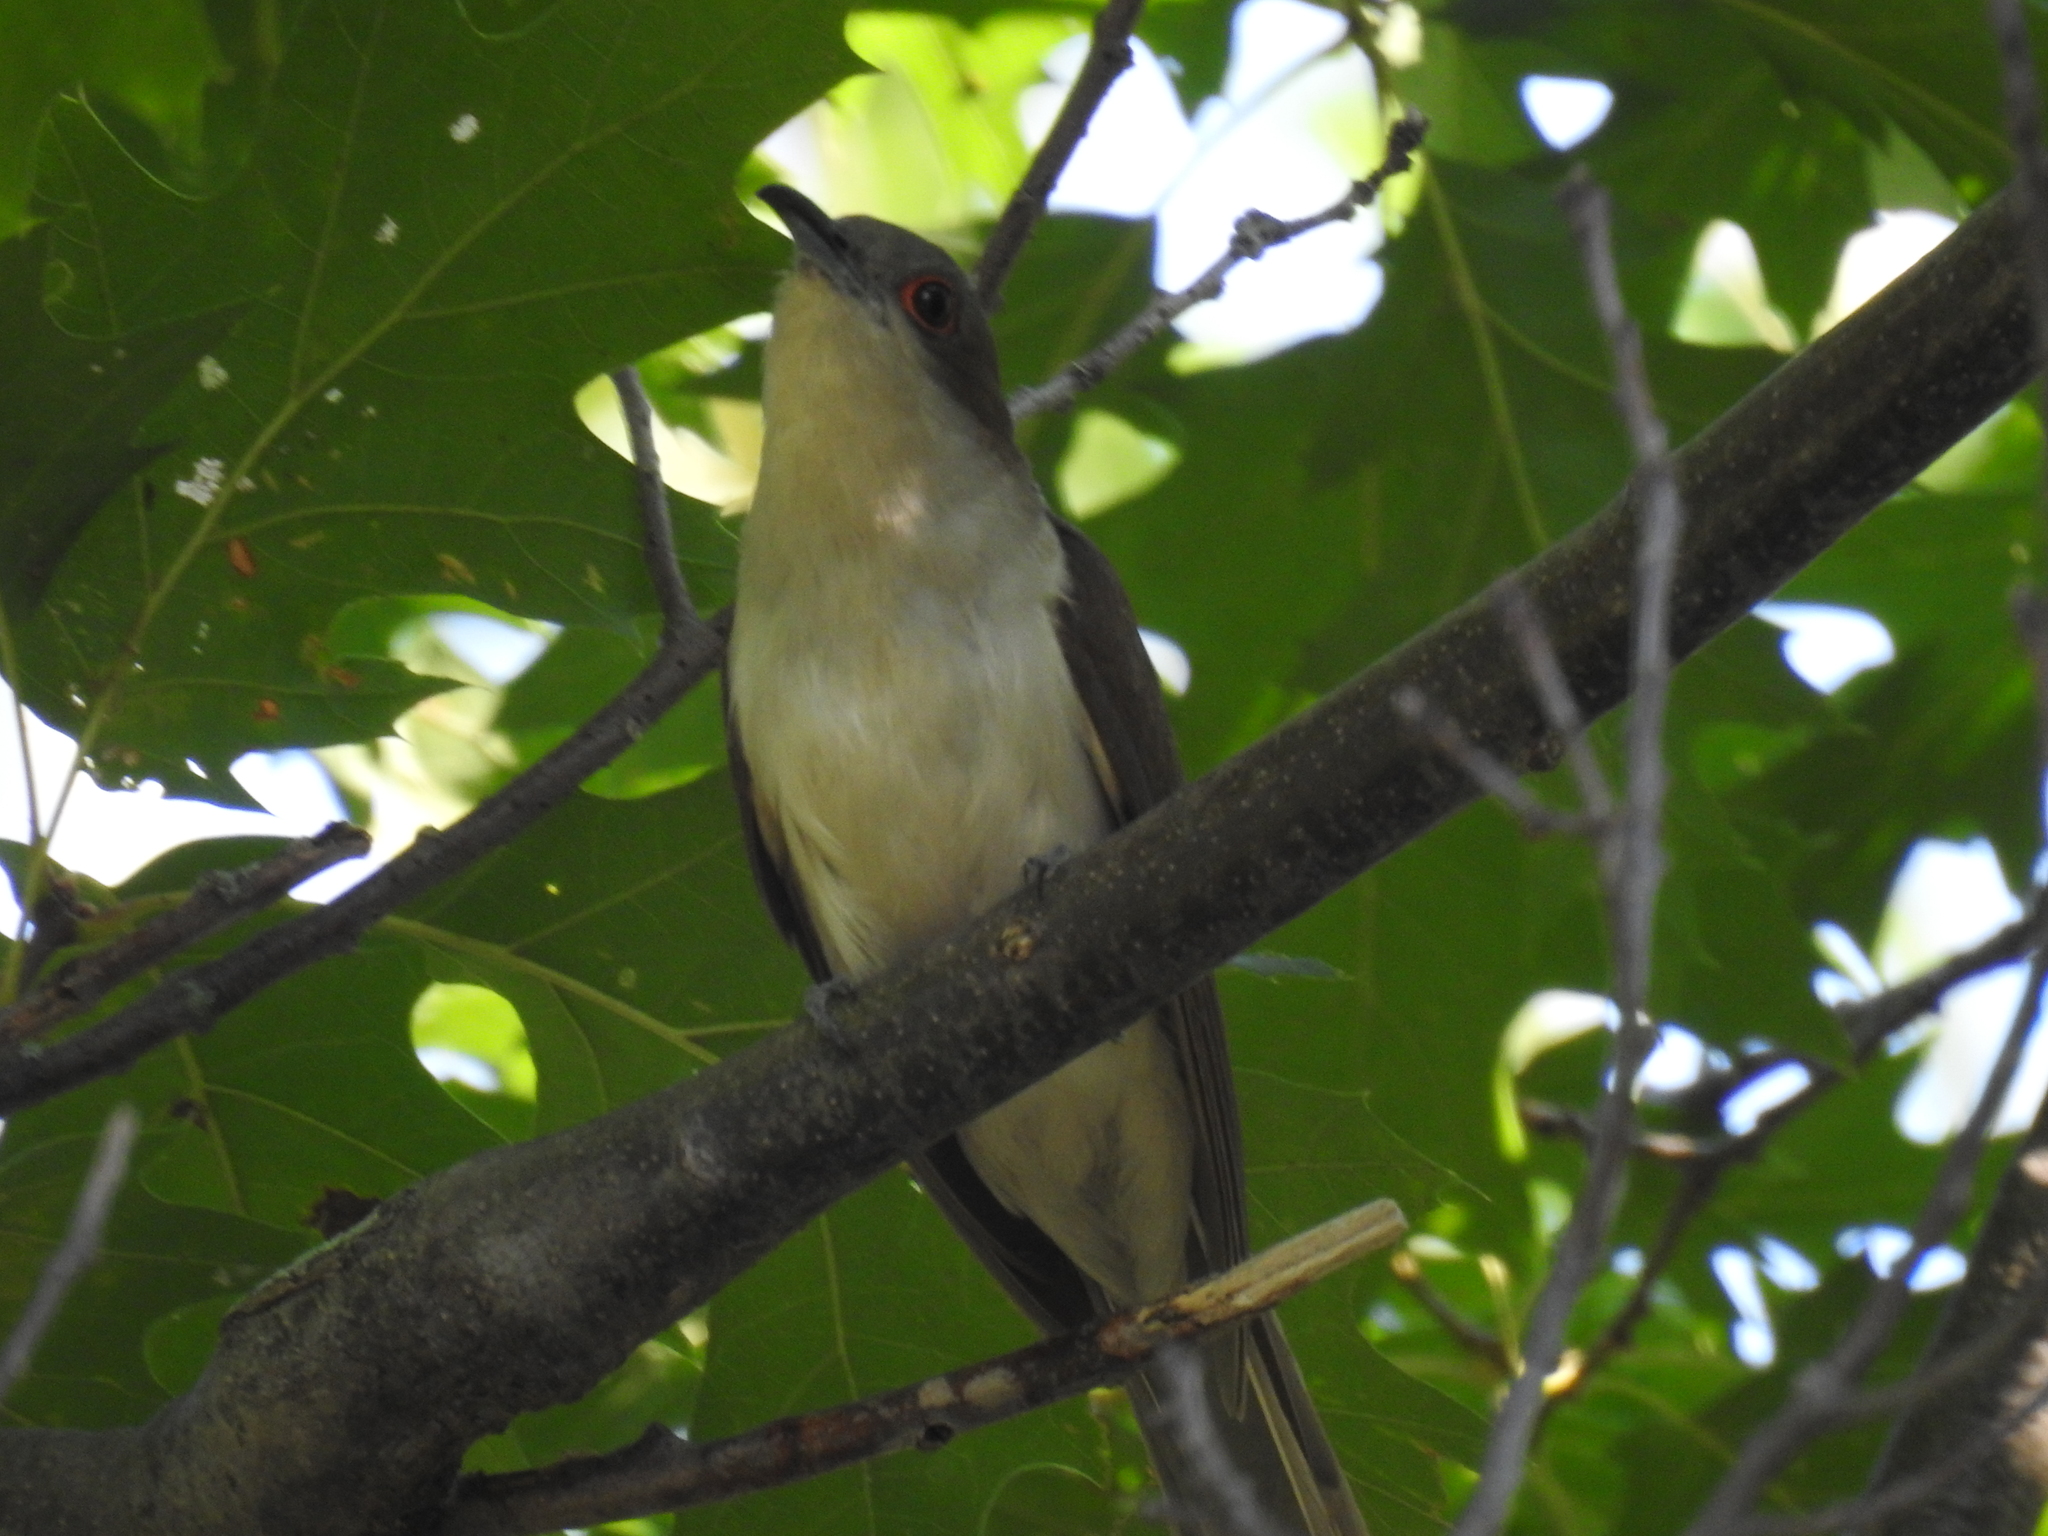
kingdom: Animalia
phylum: Chordata
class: Aves
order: Cuculiformes
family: Cuculidae
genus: Coccyzus
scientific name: Coccyzus erythropthalmus
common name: Black-billed cuckoo
